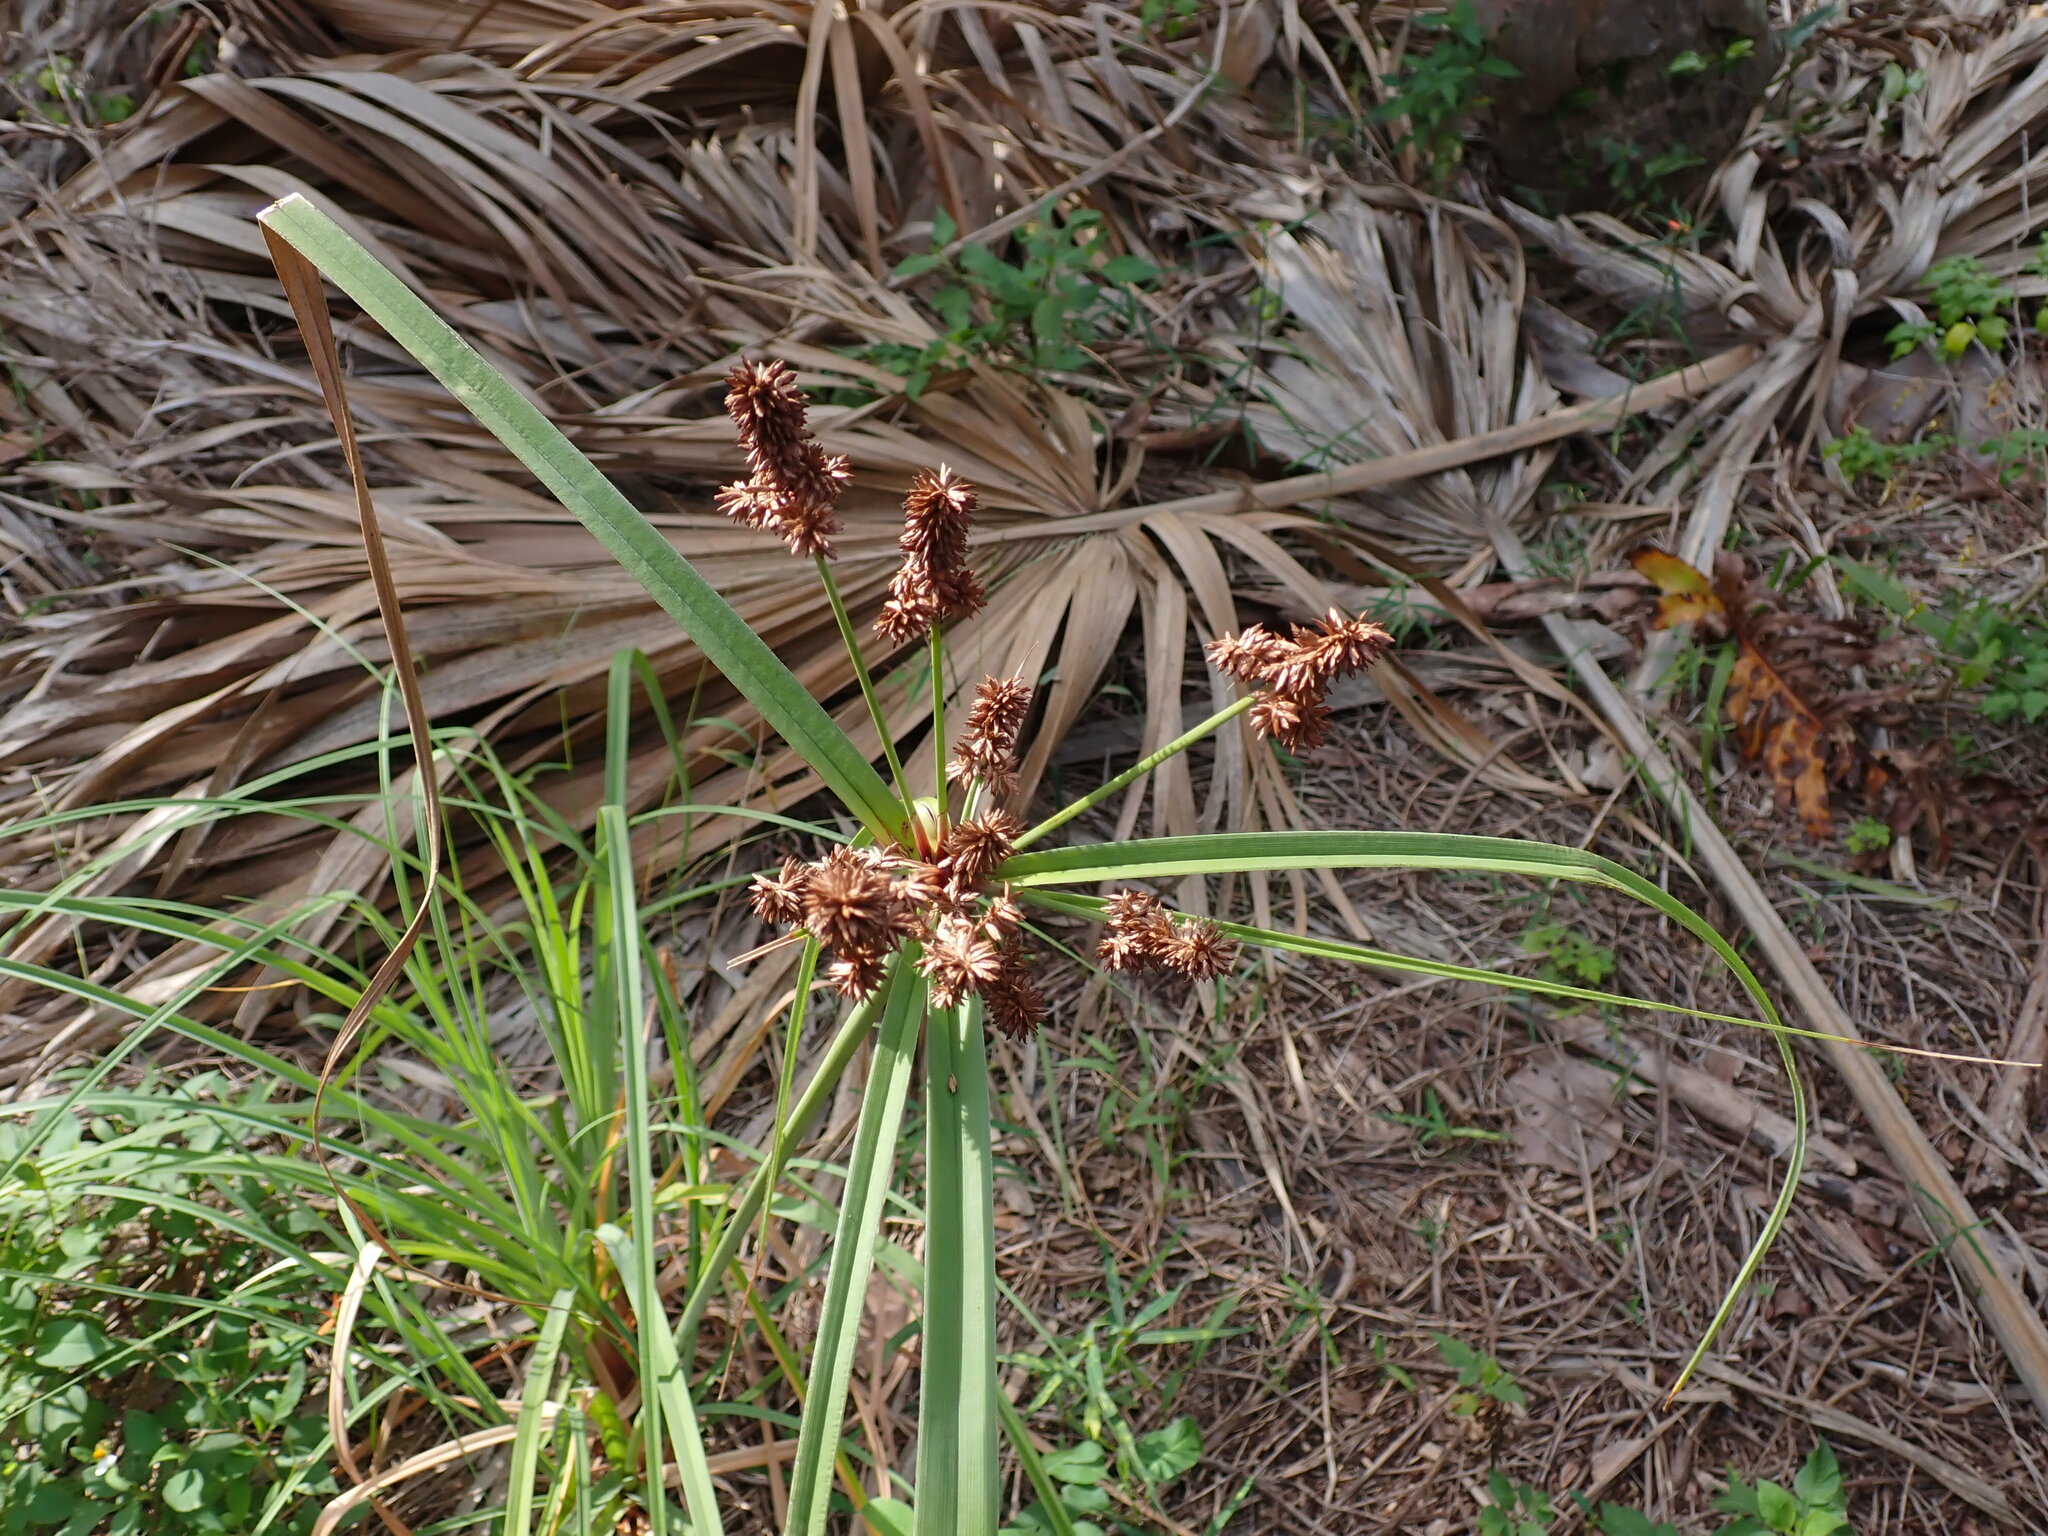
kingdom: Plantae
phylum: Tracheophyta
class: Liliopsida
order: Poales
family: Cyperaceae
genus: Cyperus
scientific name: Cyperus ligularis
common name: Swamp flat sedge
